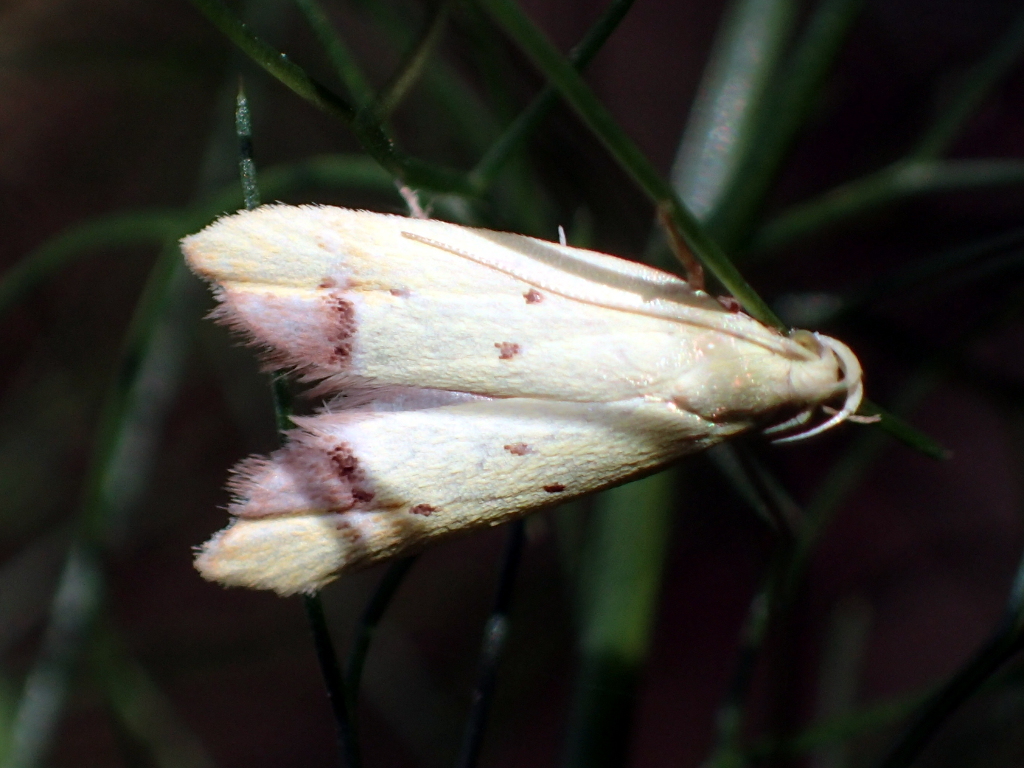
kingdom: Animalia
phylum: Arthropoda
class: Insecta
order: Lepidoptera
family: Oecophoridae
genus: Gymnobathra
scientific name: Gymnobathra flavidella
